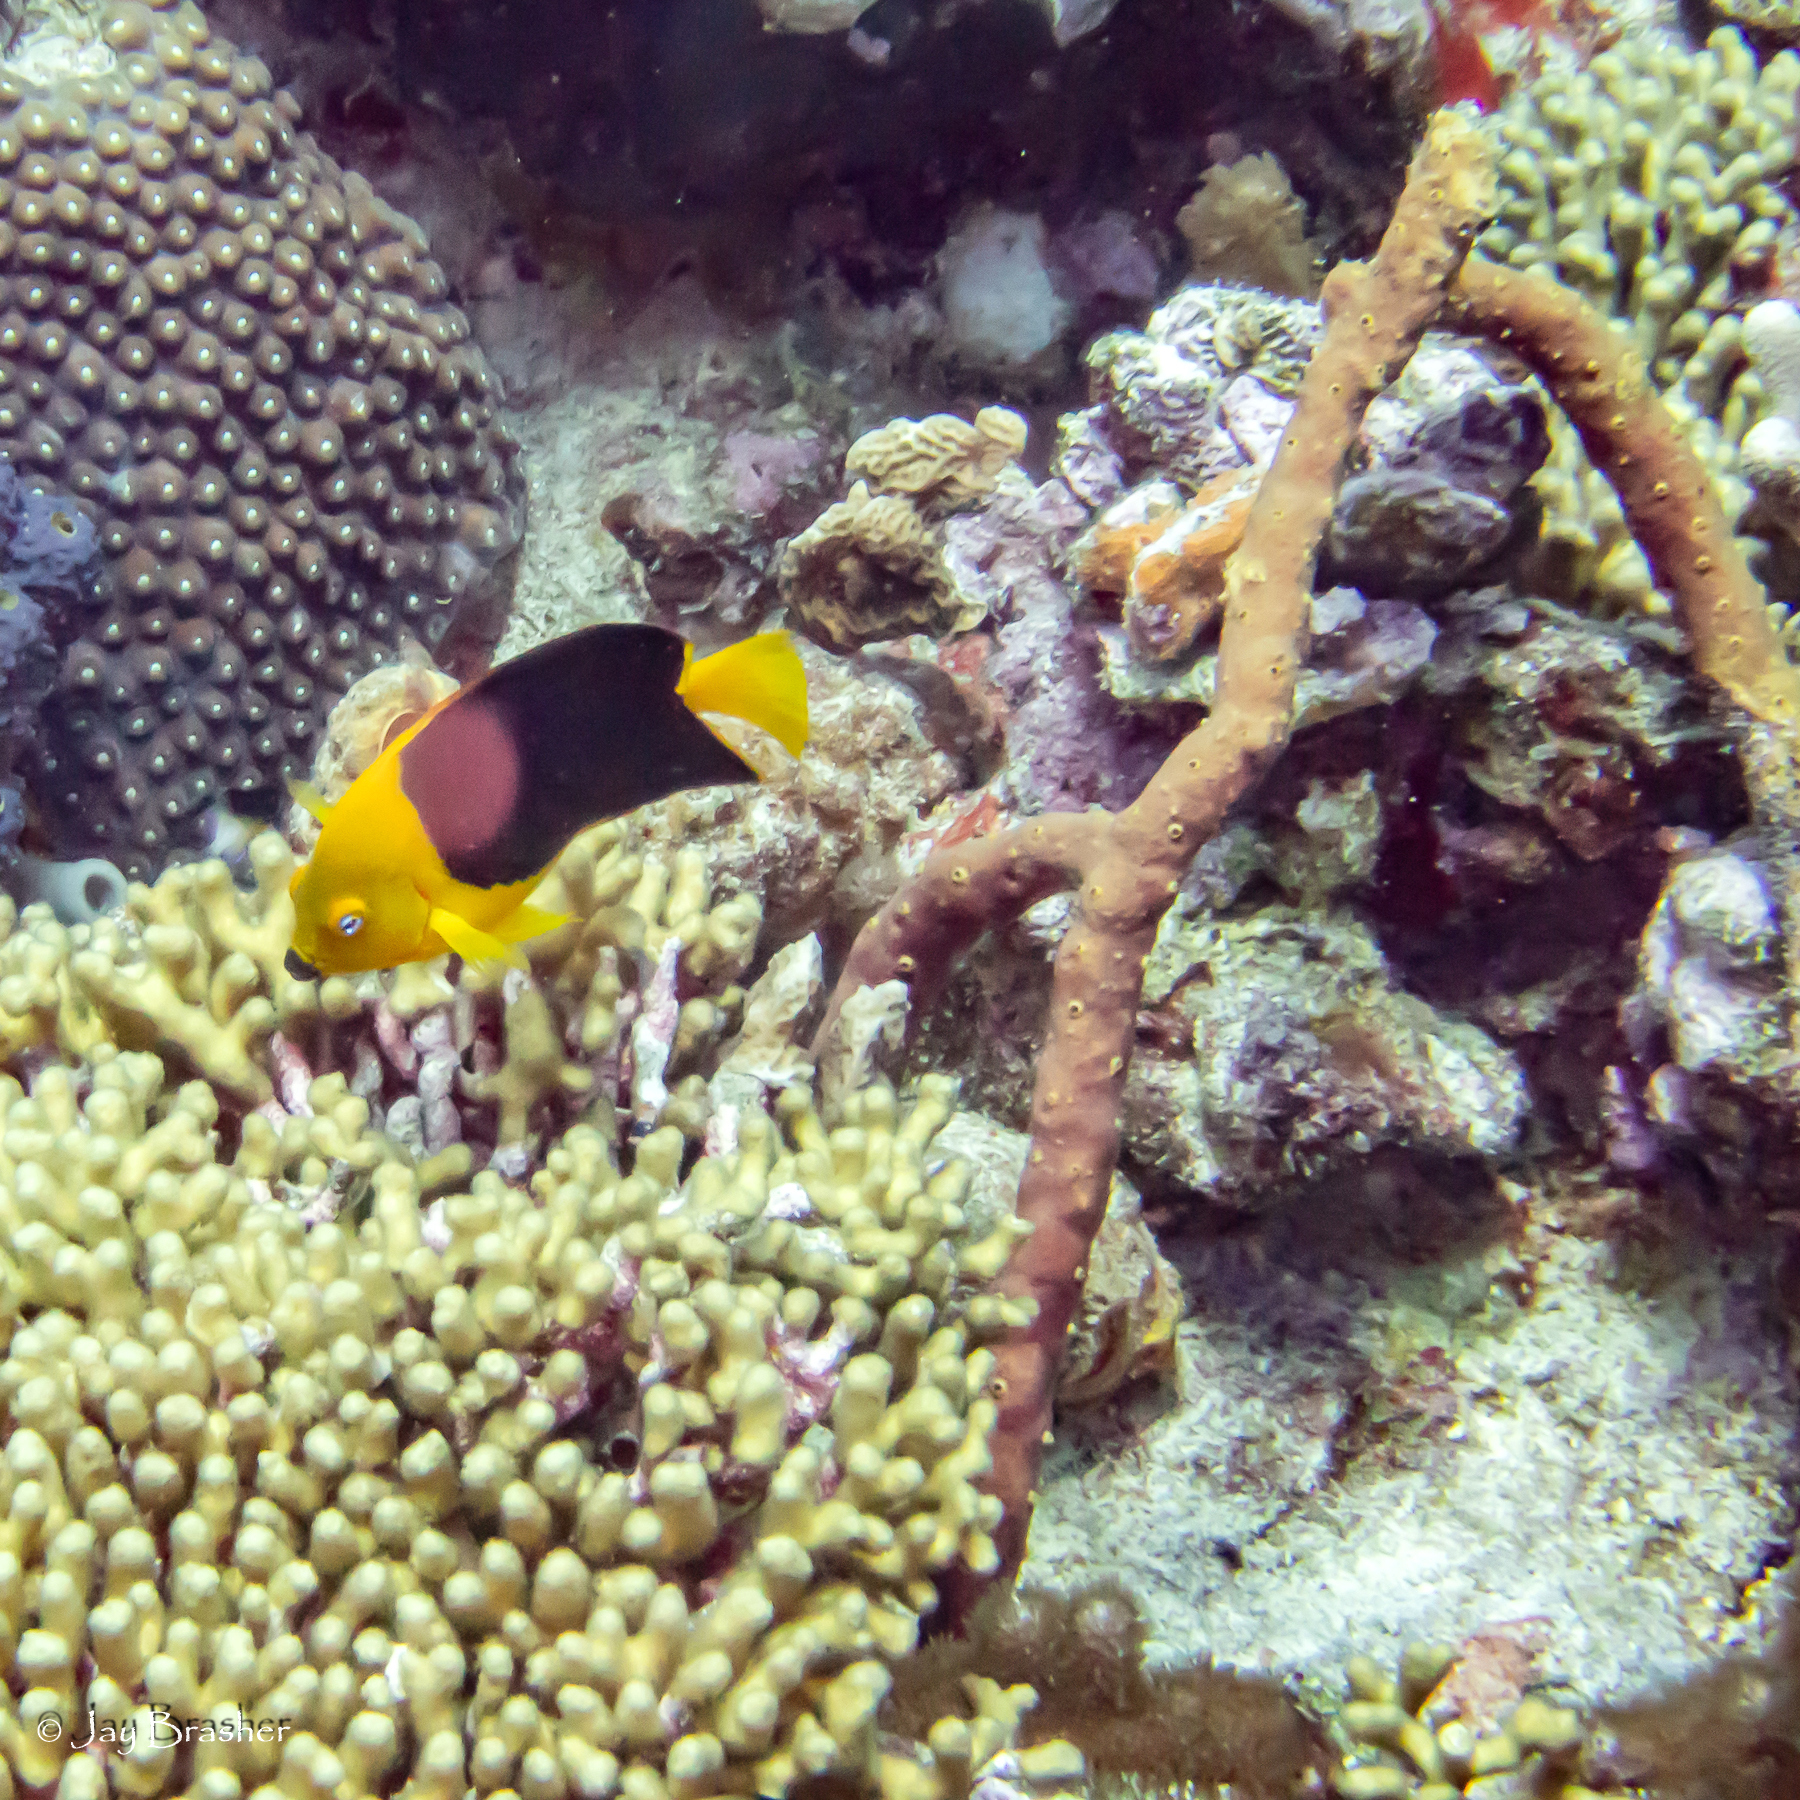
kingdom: Animalia
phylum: Cnidaria
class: Anthozoa
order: Scleractinia
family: Montastraeidae
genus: Montastraea
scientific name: Montastraea cavernosa
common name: Great star coral
